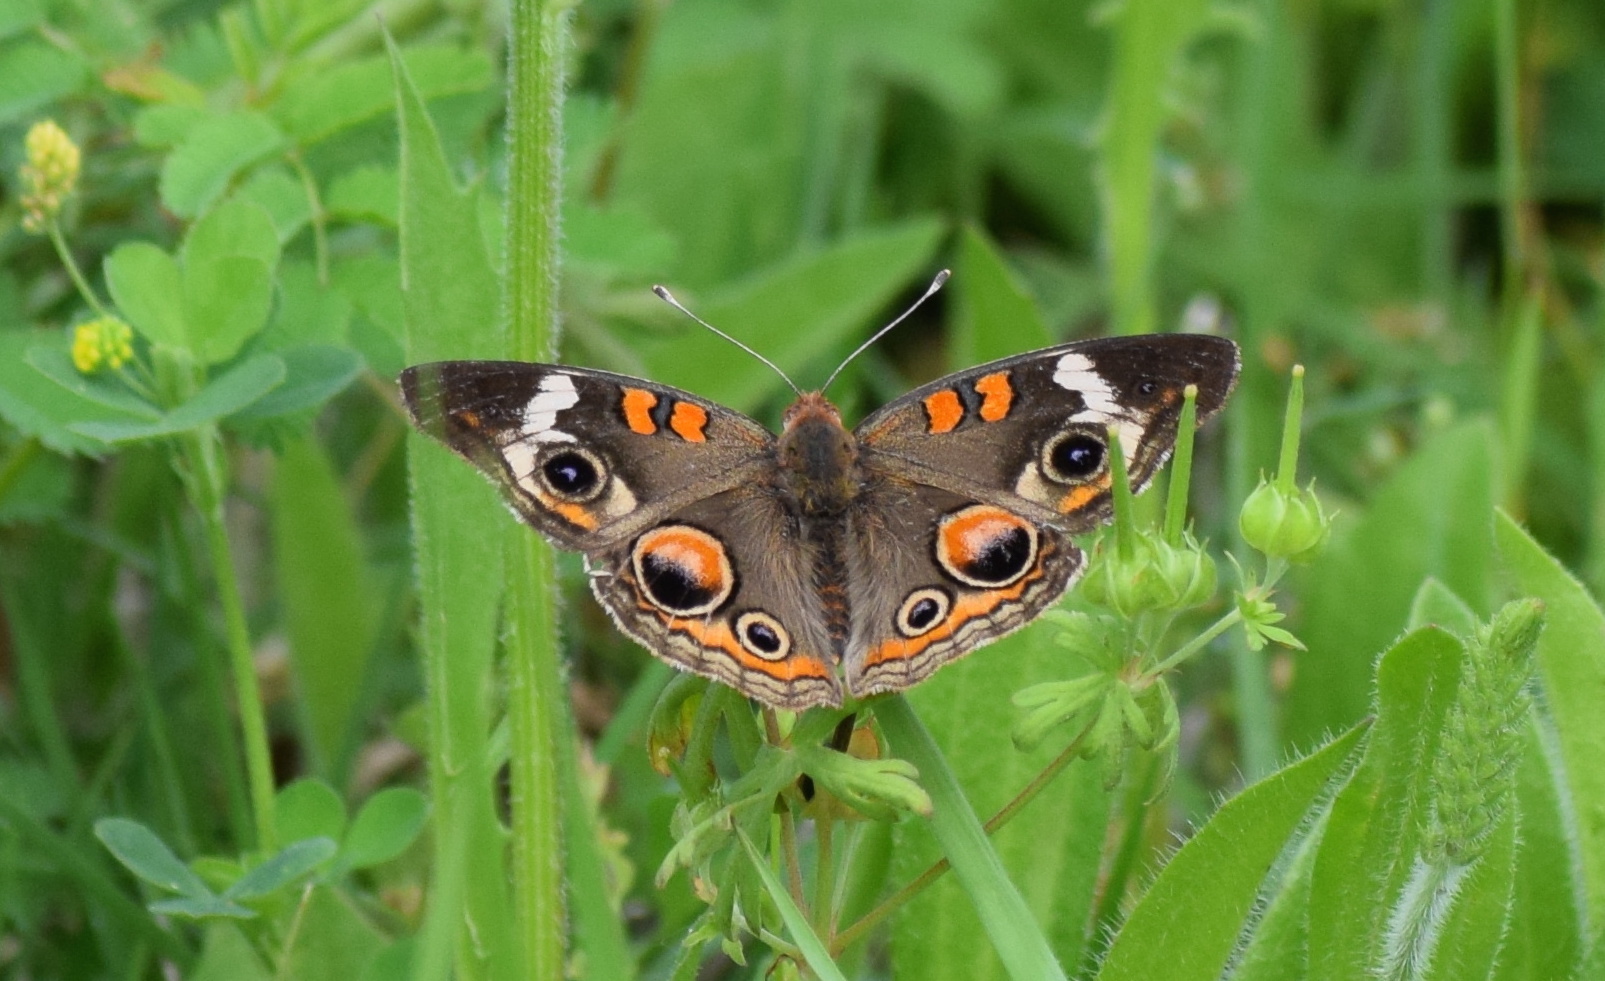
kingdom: Animalia
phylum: Arthropoda
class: Insecta
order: Lepidoptera
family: Nymphalidae
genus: Junonia
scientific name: Junonia coenia
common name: Common buckeye
